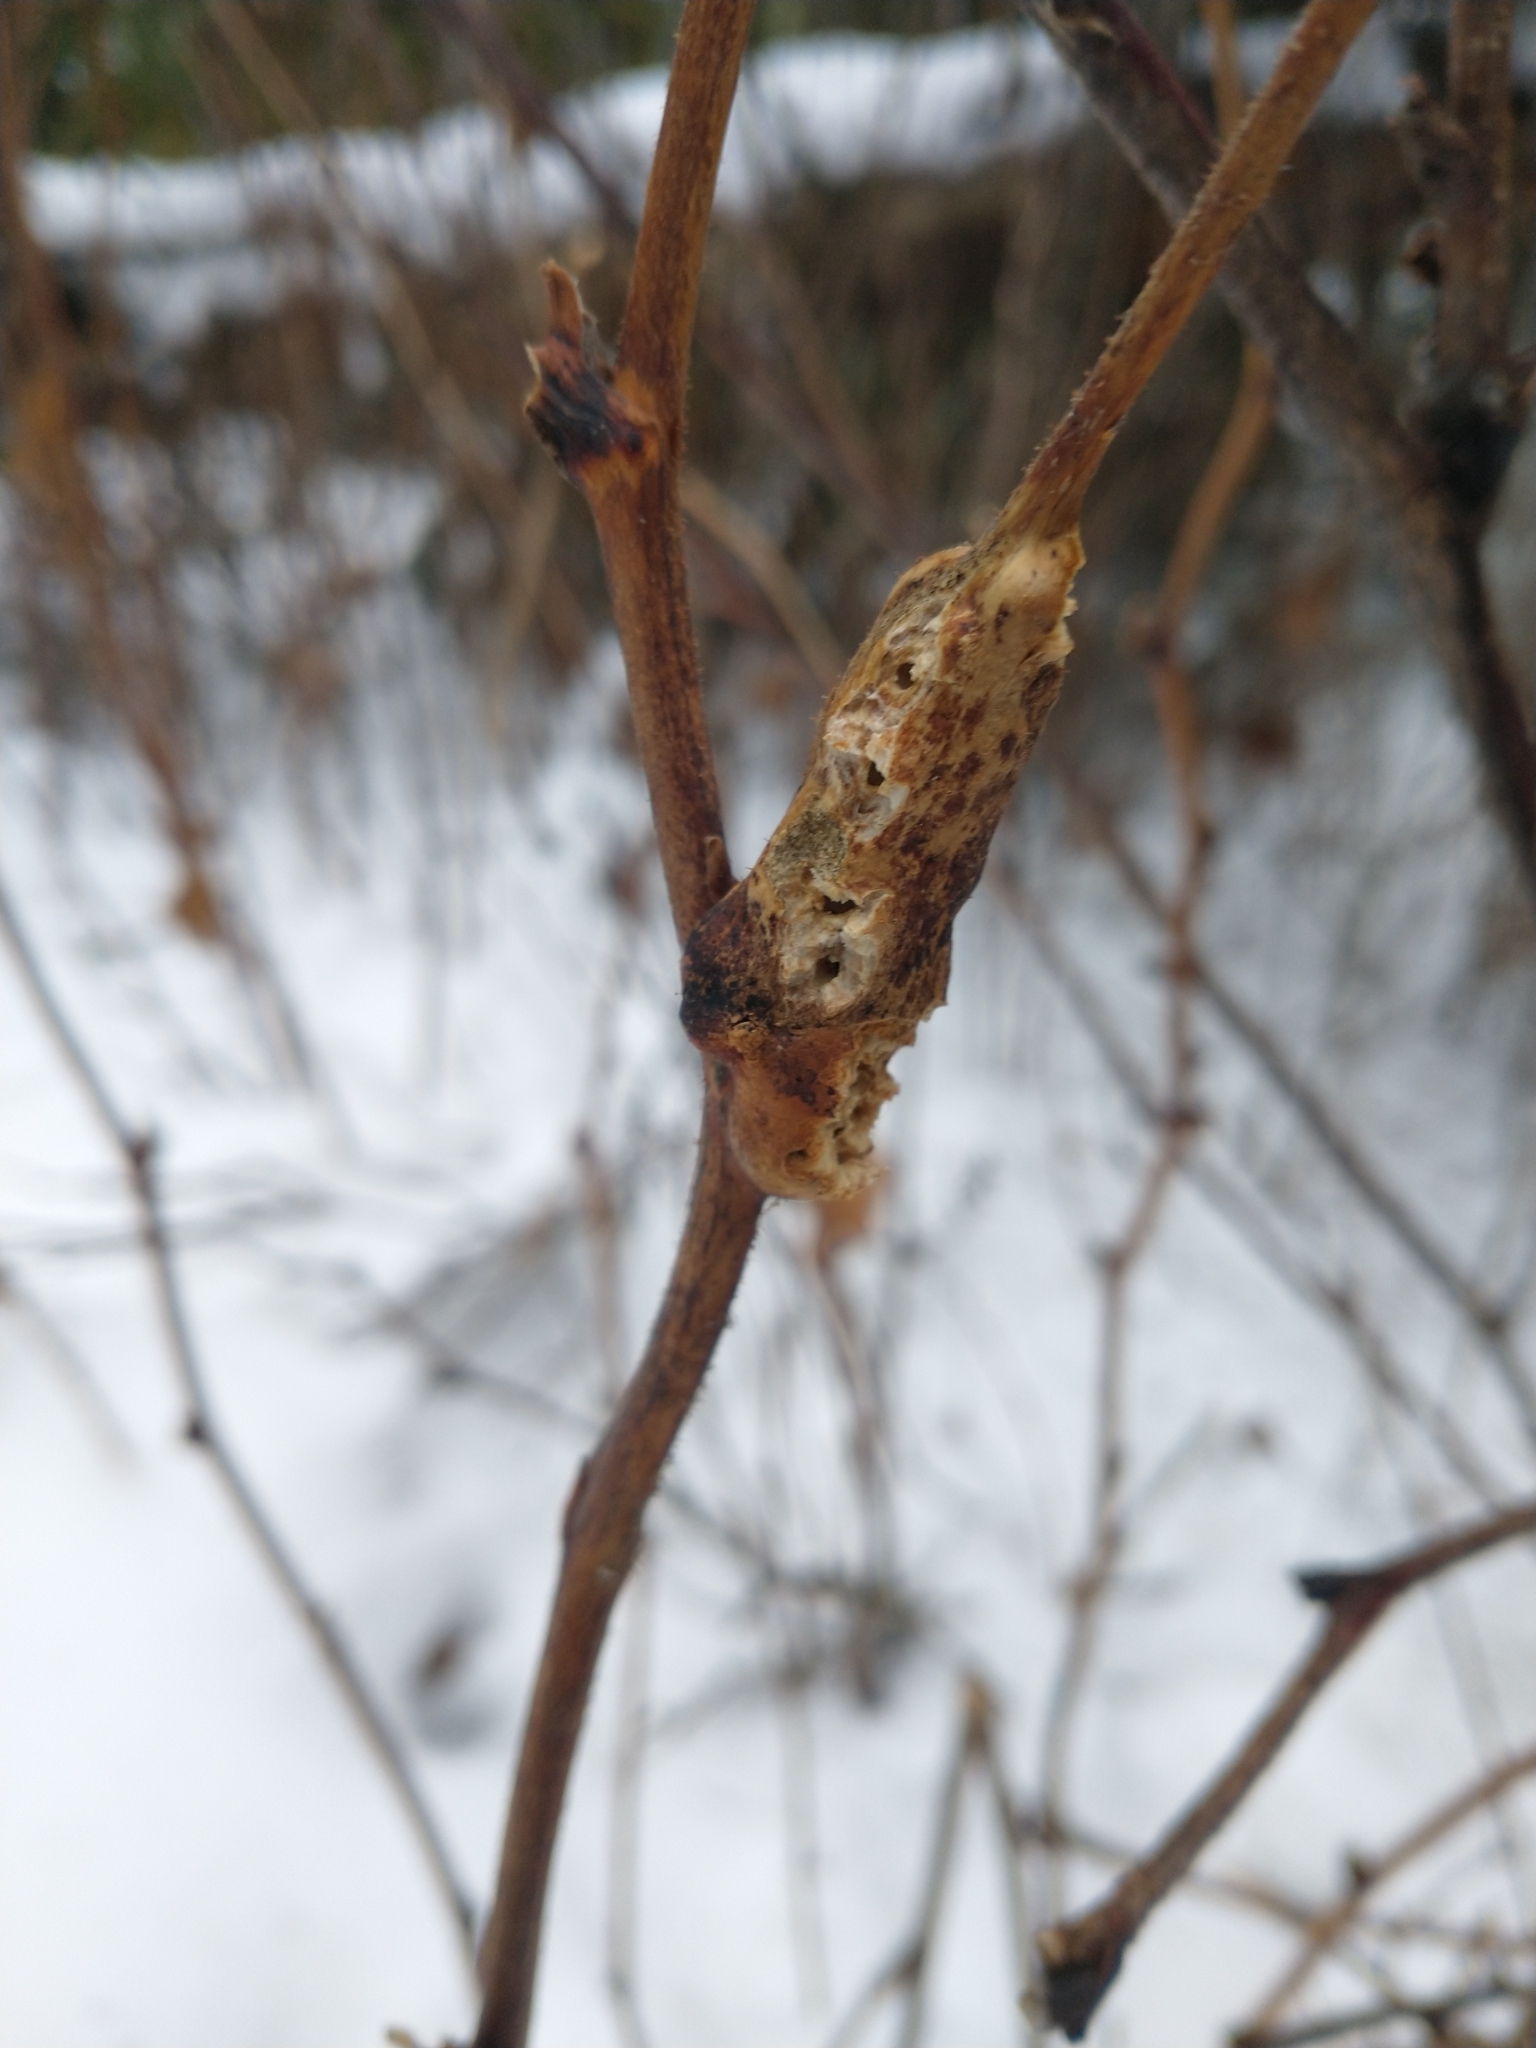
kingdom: Animalia
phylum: Arthropoda
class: Insecta
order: Hymenoptera
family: Cynipidae
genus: Diastrophus
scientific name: Diastrophus
